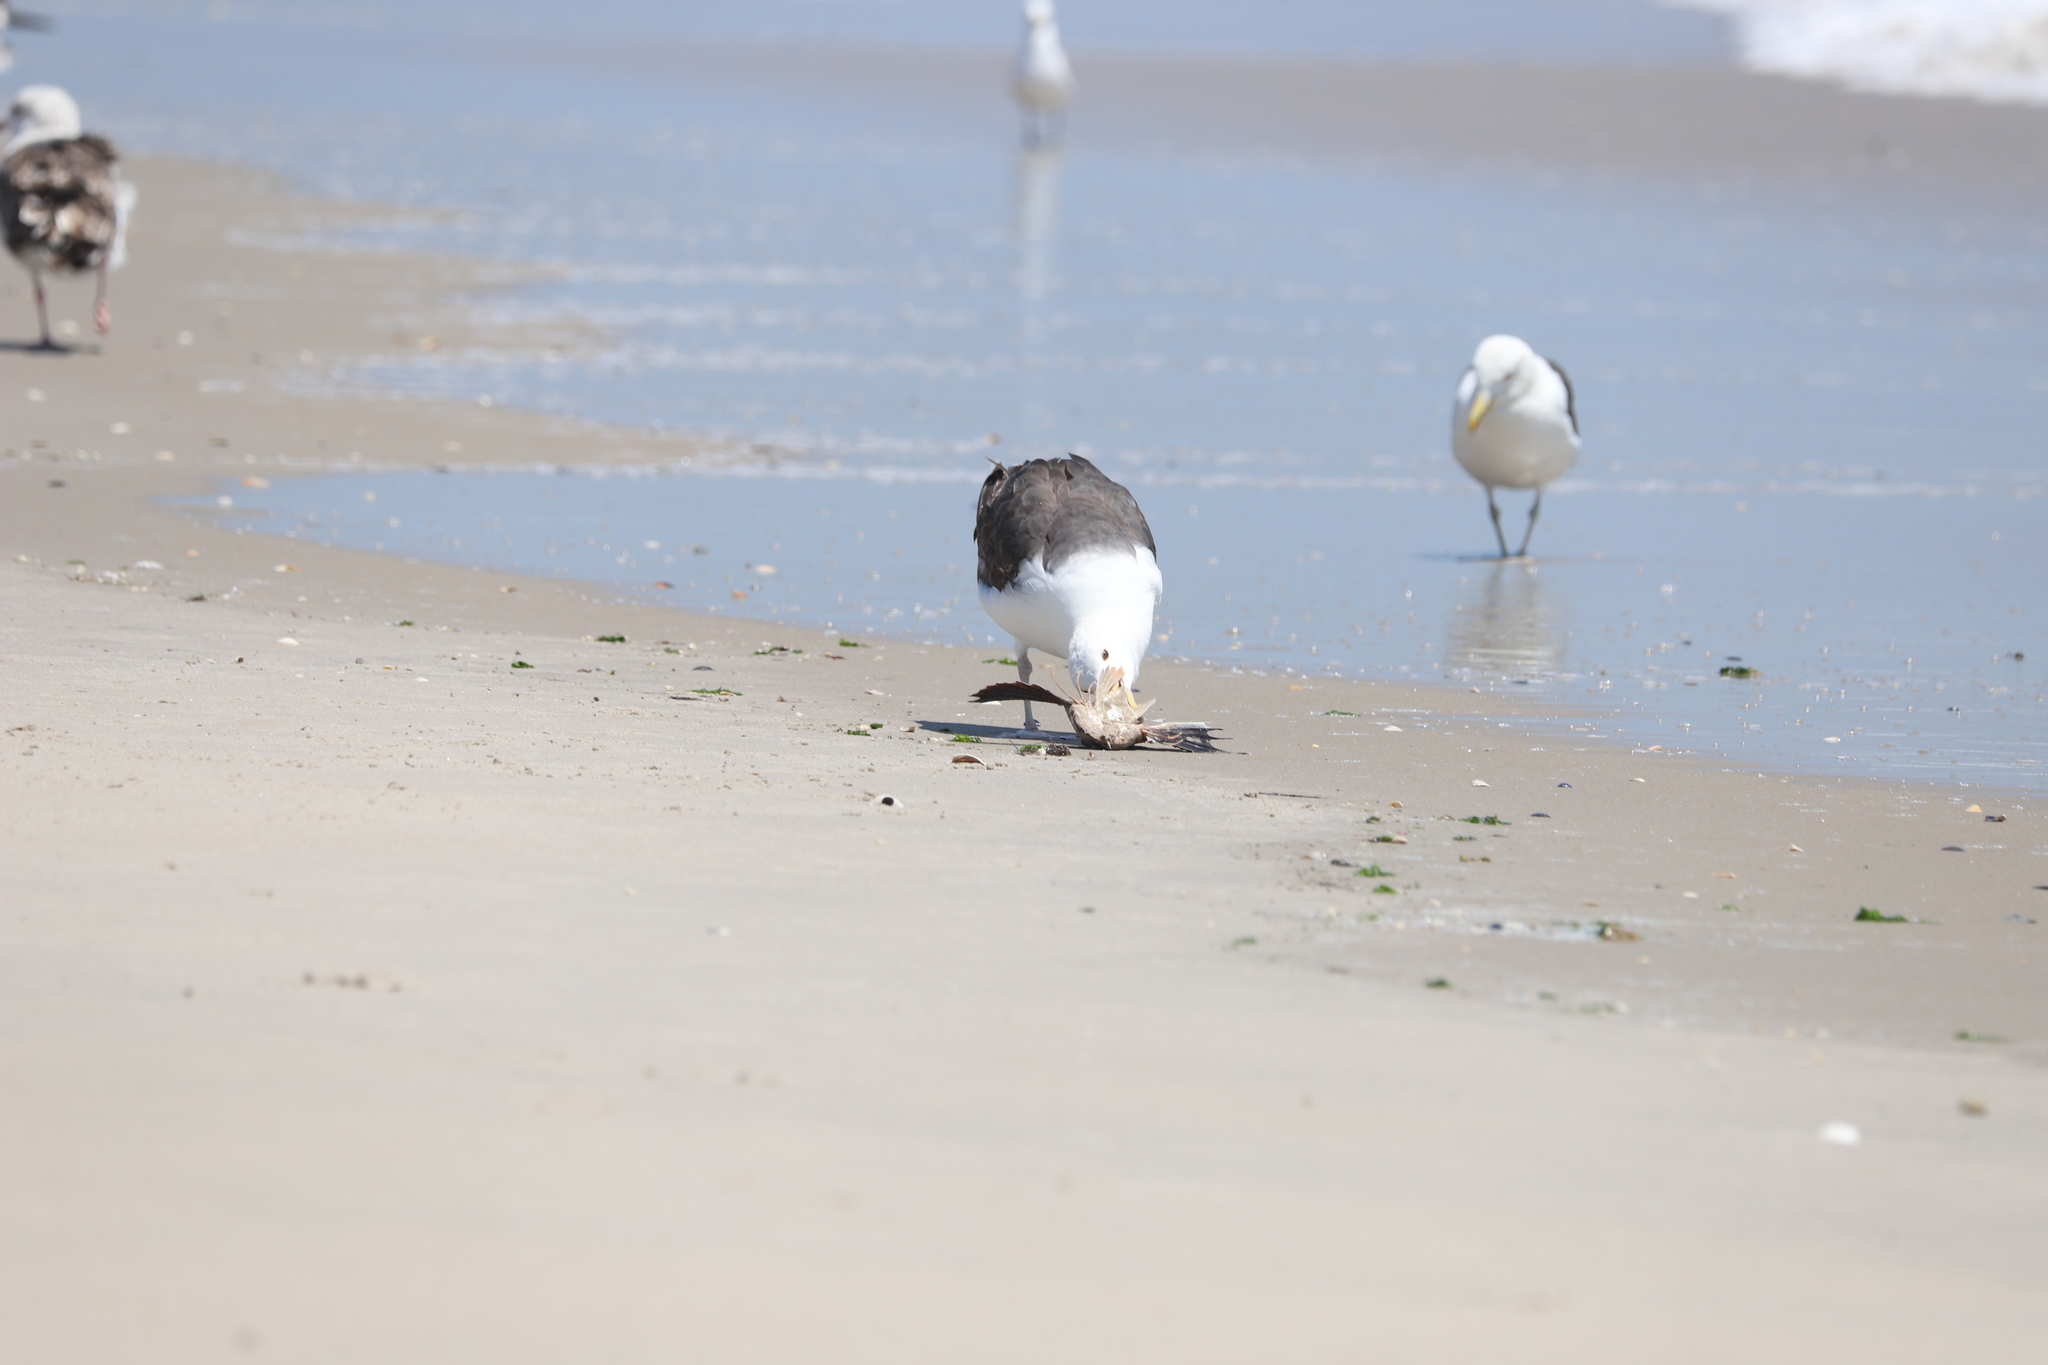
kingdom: Animalia
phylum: Chordata
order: Scorpaeniformes
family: Triglidae
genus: Prionotus
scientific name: Prionotus evolans
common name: Striped searobin
